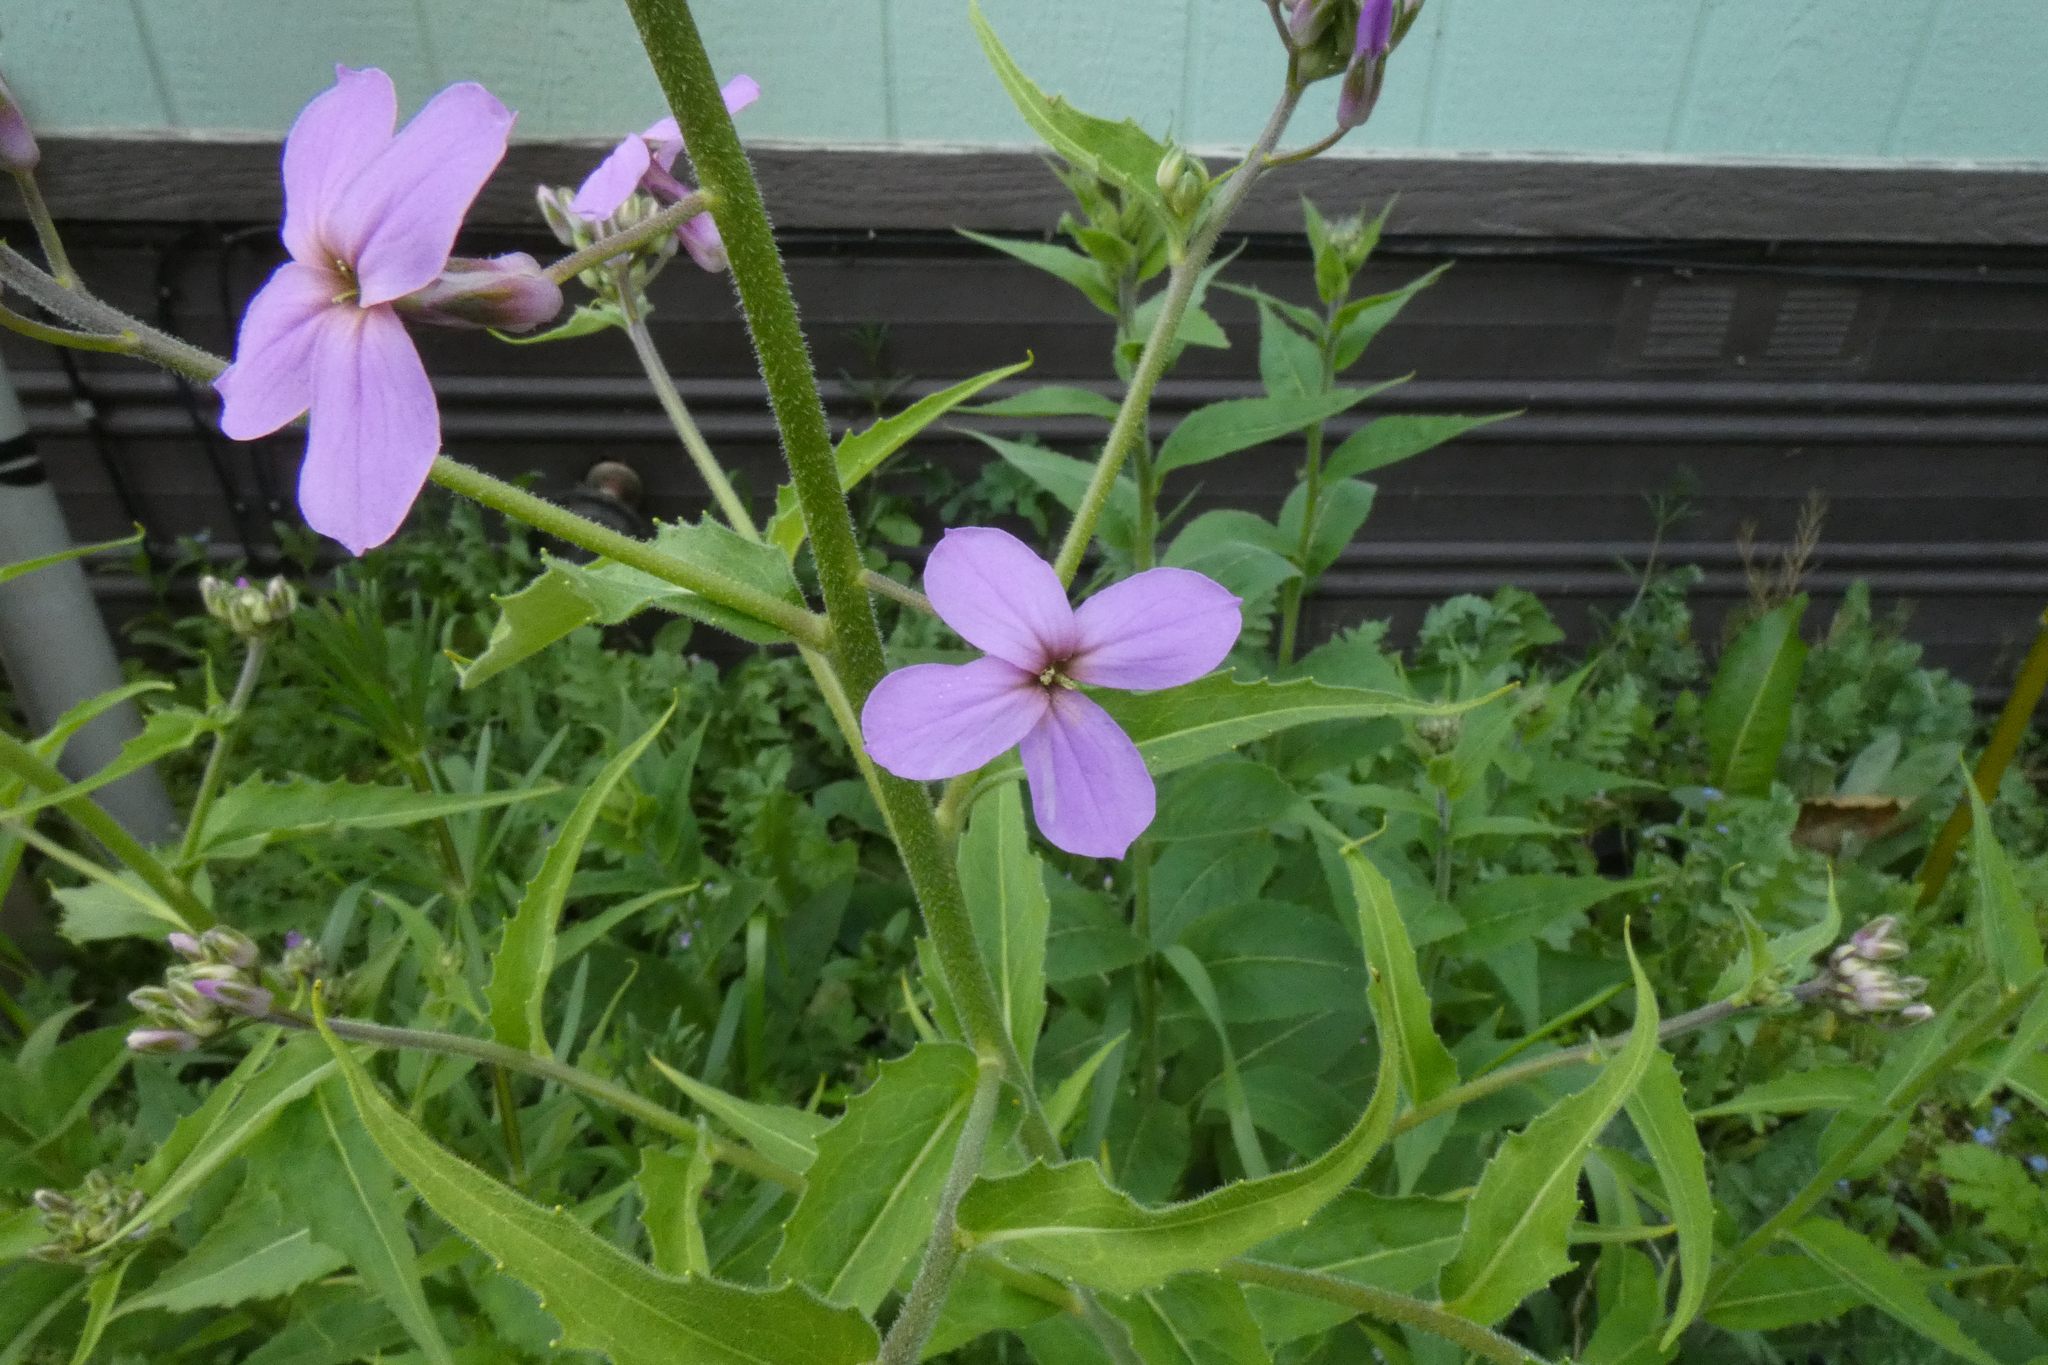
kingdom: Plantae
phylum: Tracheophyta
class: Magnoliopsida
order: Brassicales
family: Brassicaceae
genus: Hesperis
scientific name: Hesperis matronalis
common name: Dame's-violet
